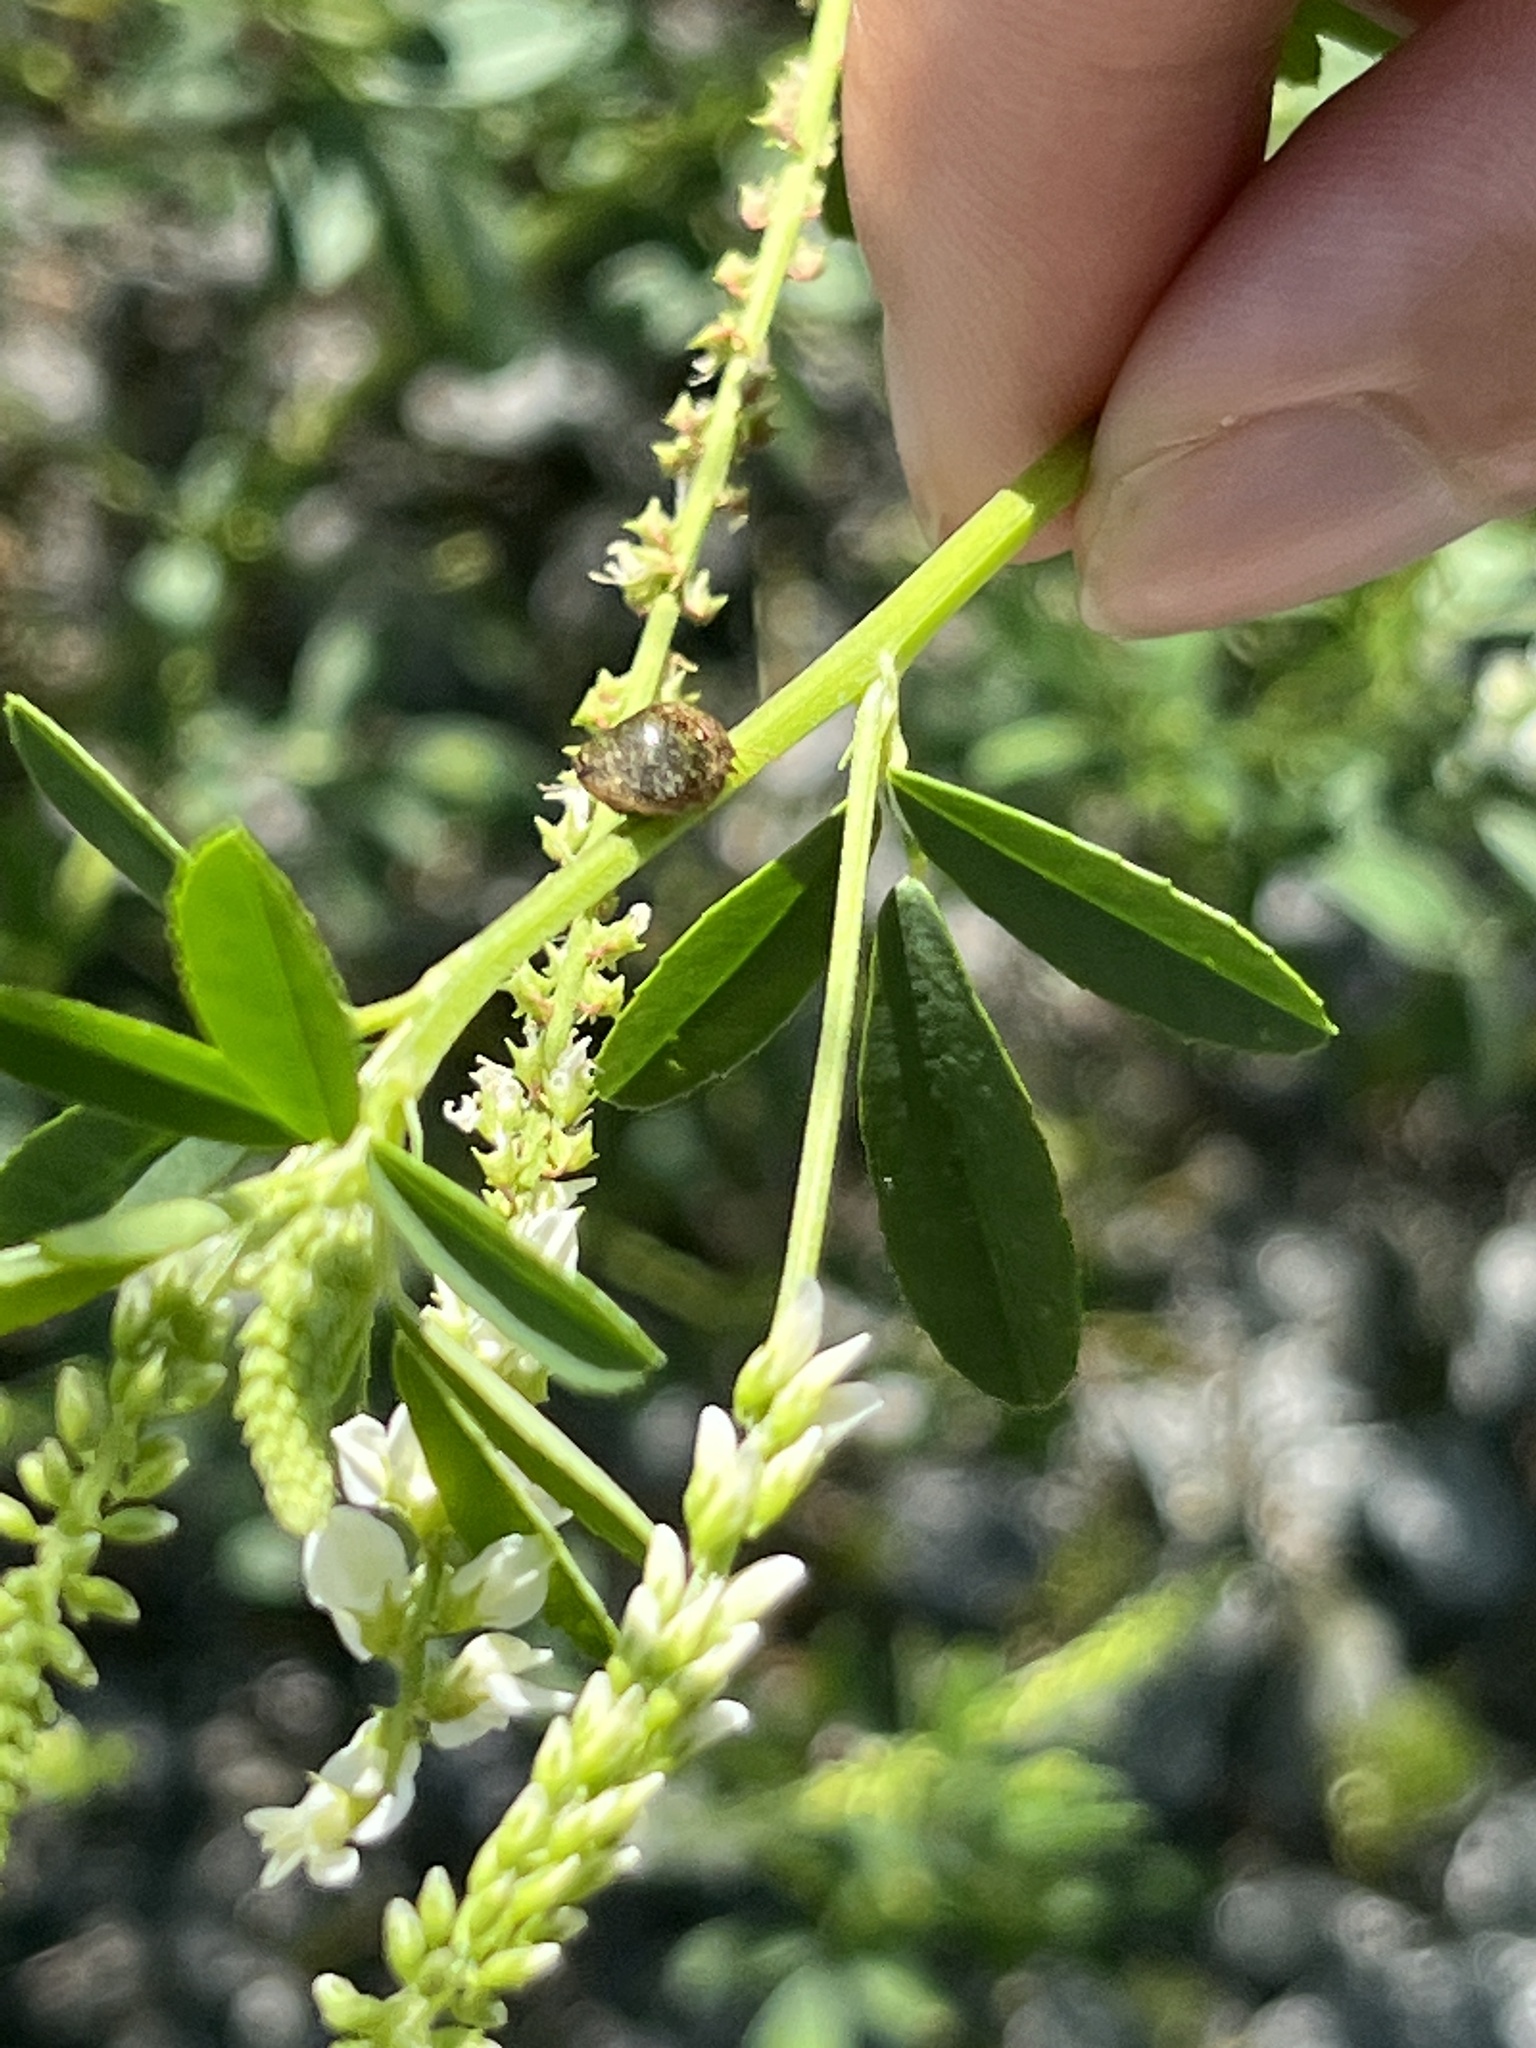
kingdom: Animalia
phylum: Arthropoda
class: Insecta
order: Hemiptera
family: Plataspidae
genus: Megacopta
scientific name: Megacopta cribraria
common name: Bean plataspid
